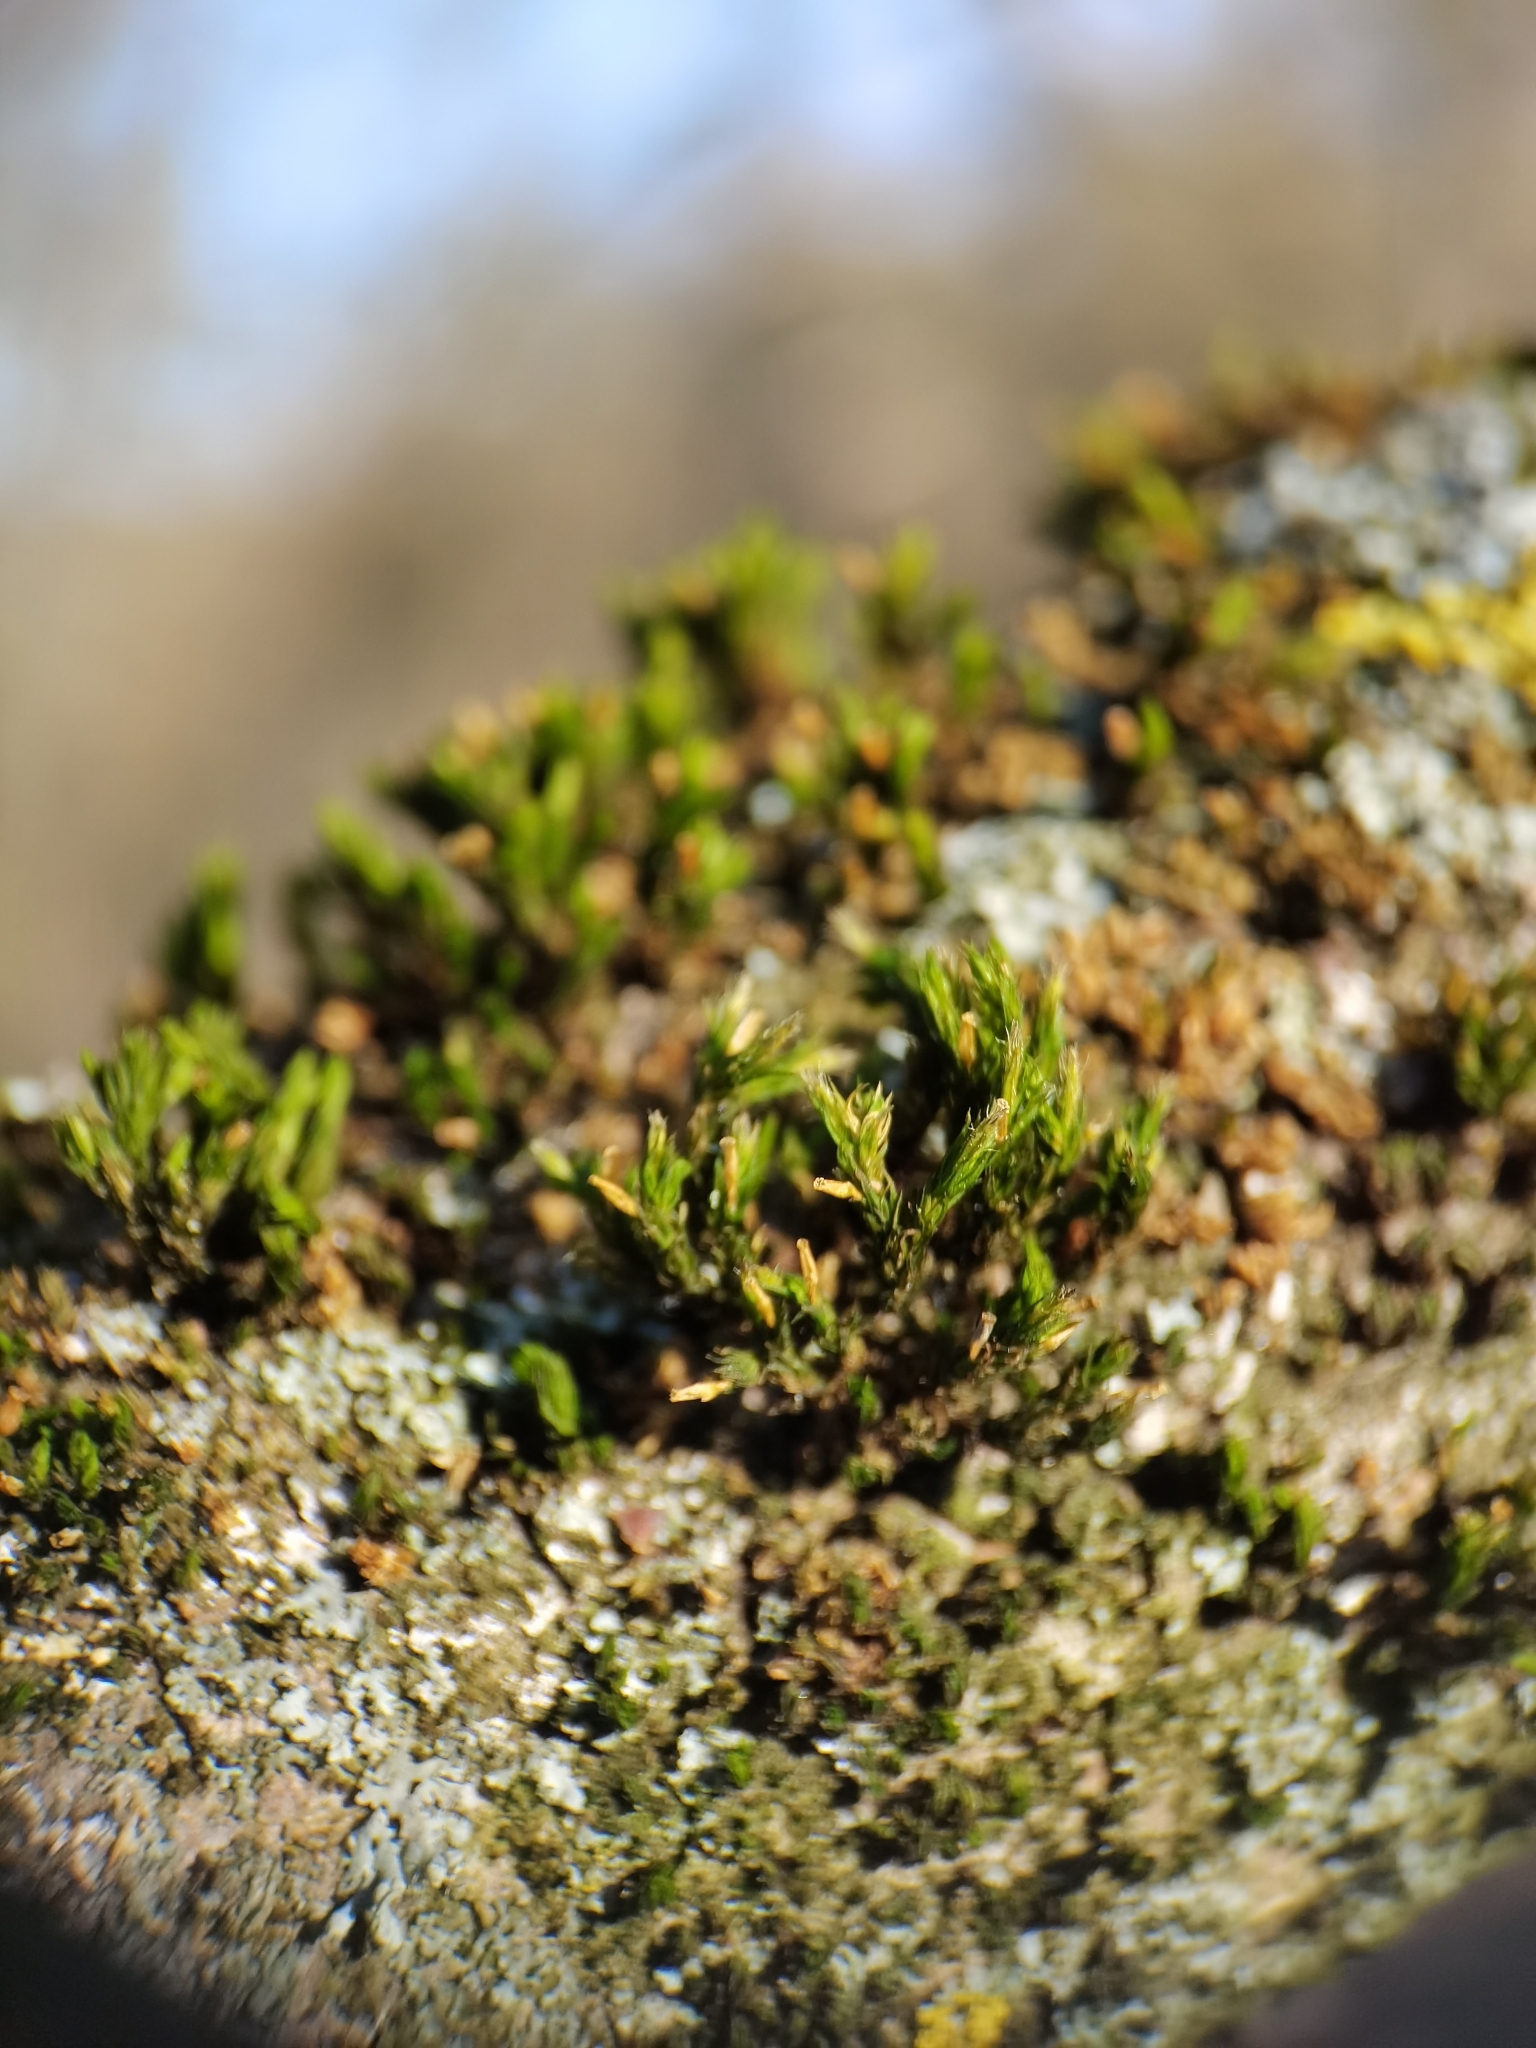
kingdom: Plantae
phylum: Bryophyta
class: Bryopsida
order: Orthotrichales
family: Orthotrichaceae
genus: Lewinskya
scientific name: Lewinskya speciosa
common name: Showy bristle moss
